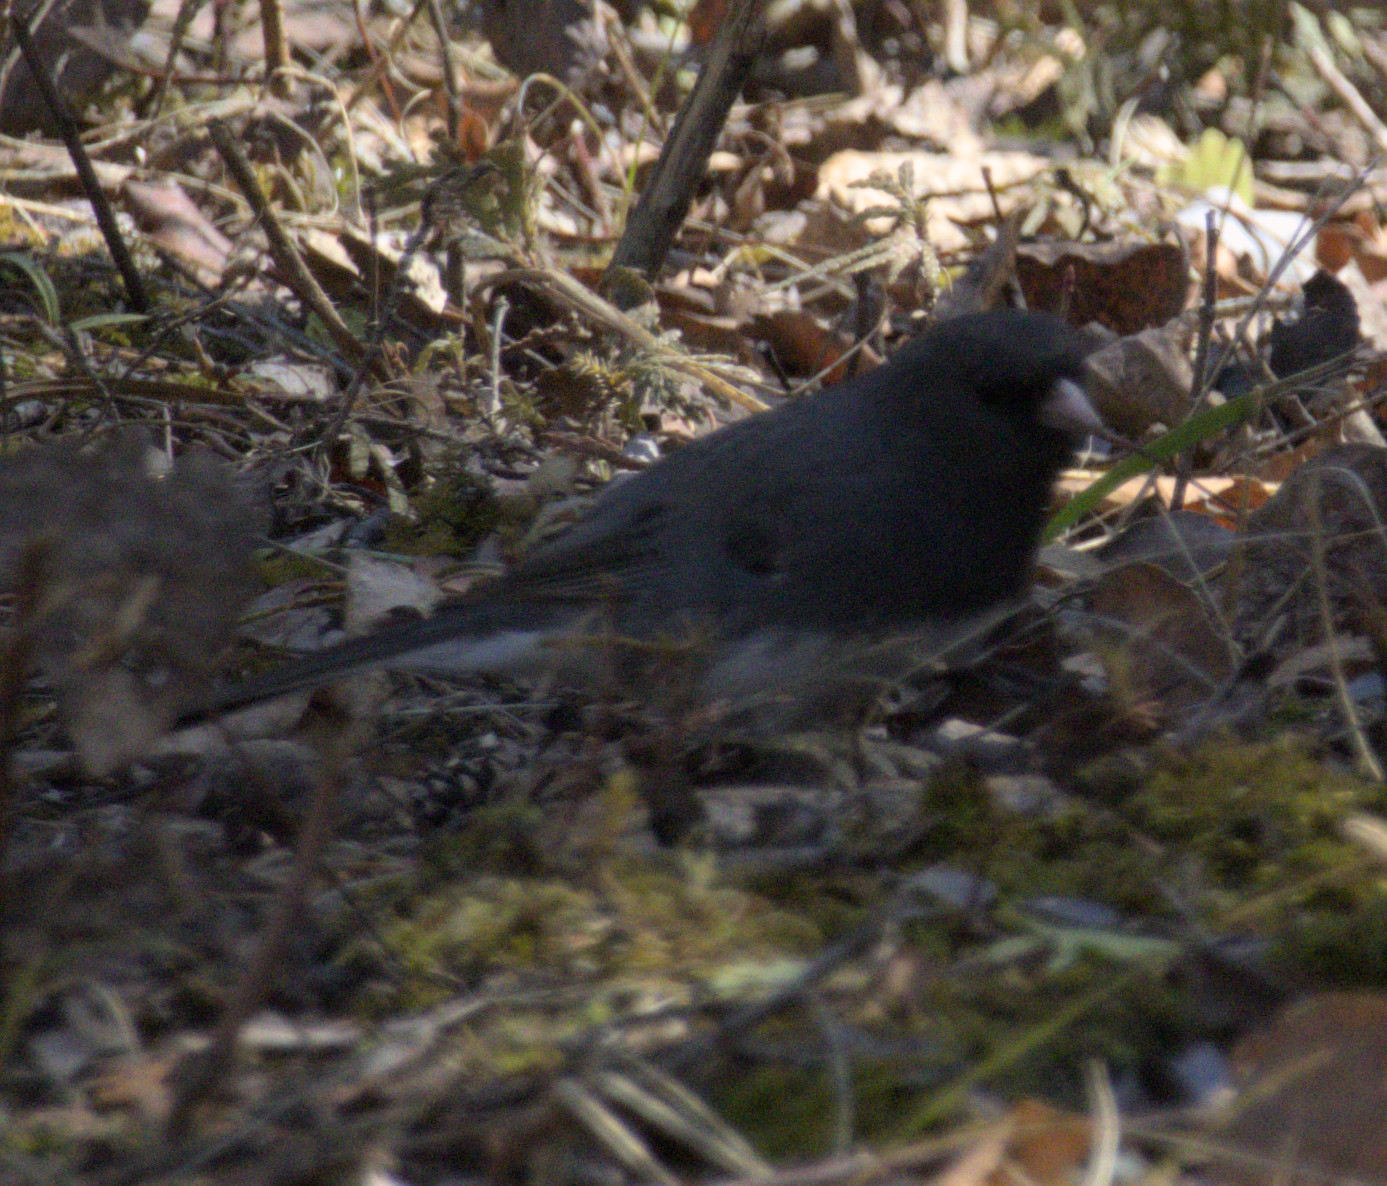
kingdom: Animalia
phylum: Chordata
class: Aves
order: Passeriformes
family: Passerellidae
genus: Junco
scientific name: Junco hyemalis
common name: Dark-eyed junco
